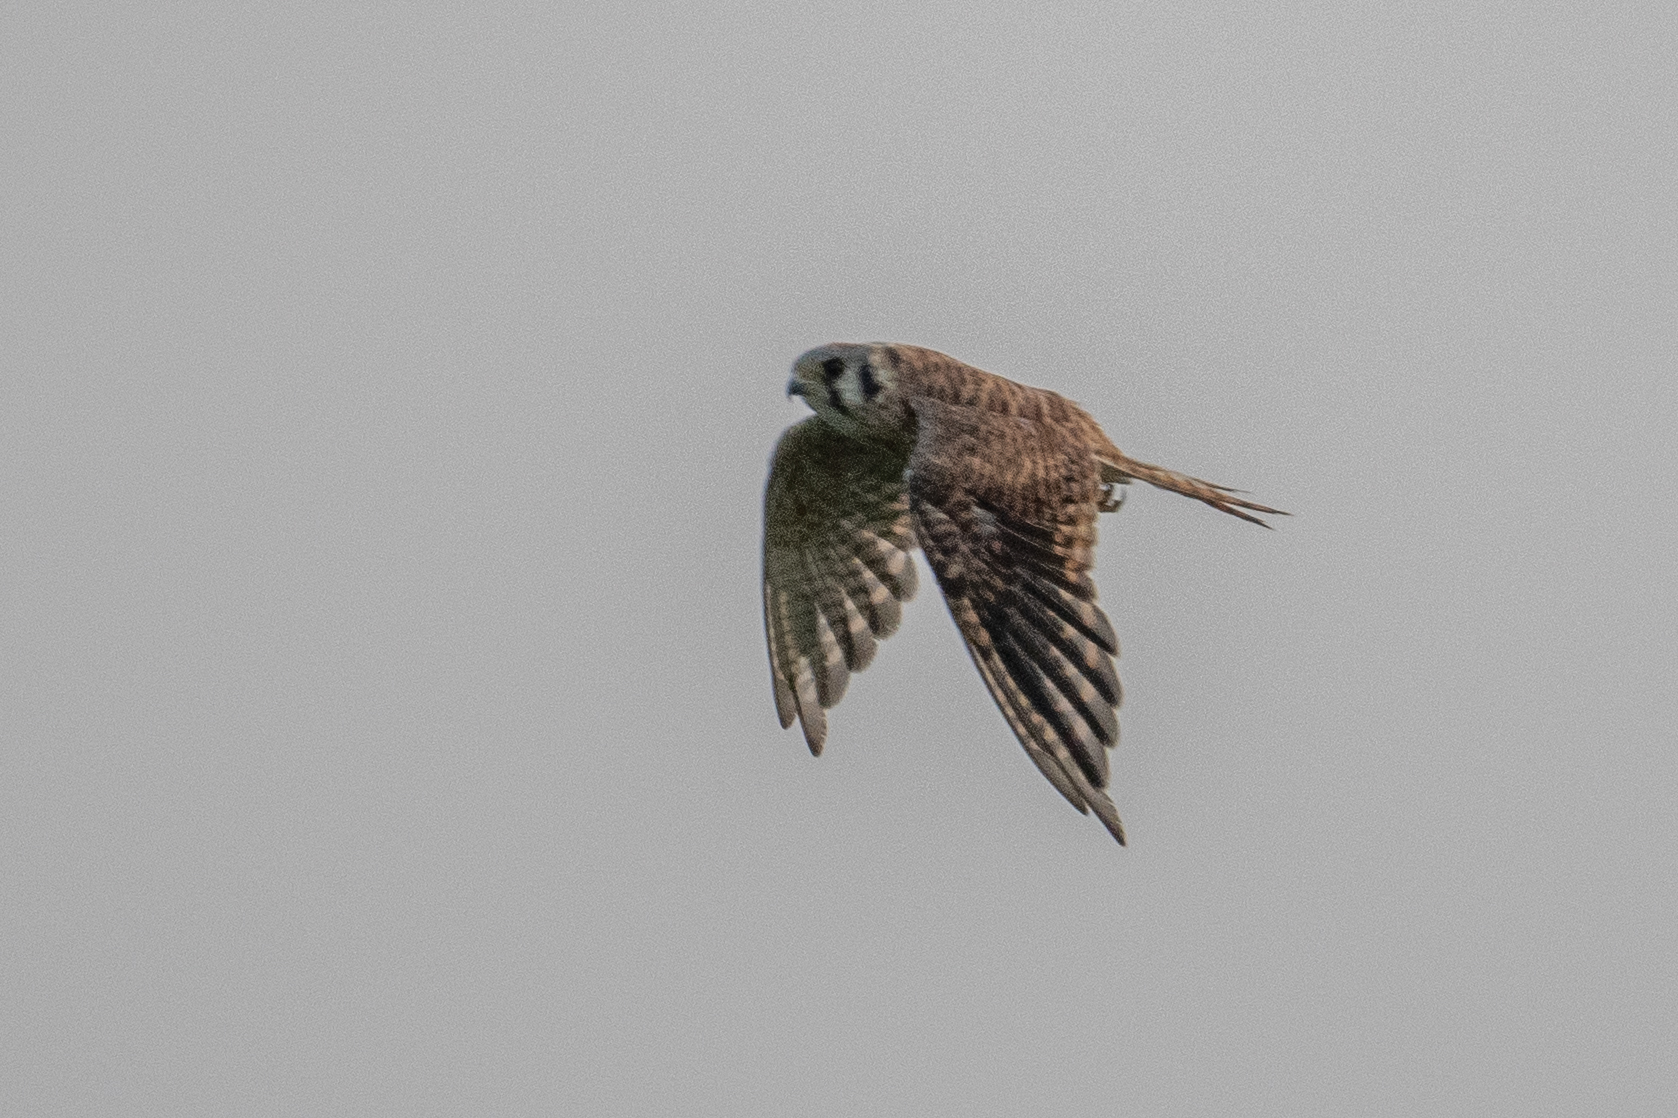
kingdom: Animalia
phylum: Chordata
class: Aves
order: Falconiformes
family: Falconidae
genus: Falco
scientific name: Falco sparverius
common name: American kestrel
